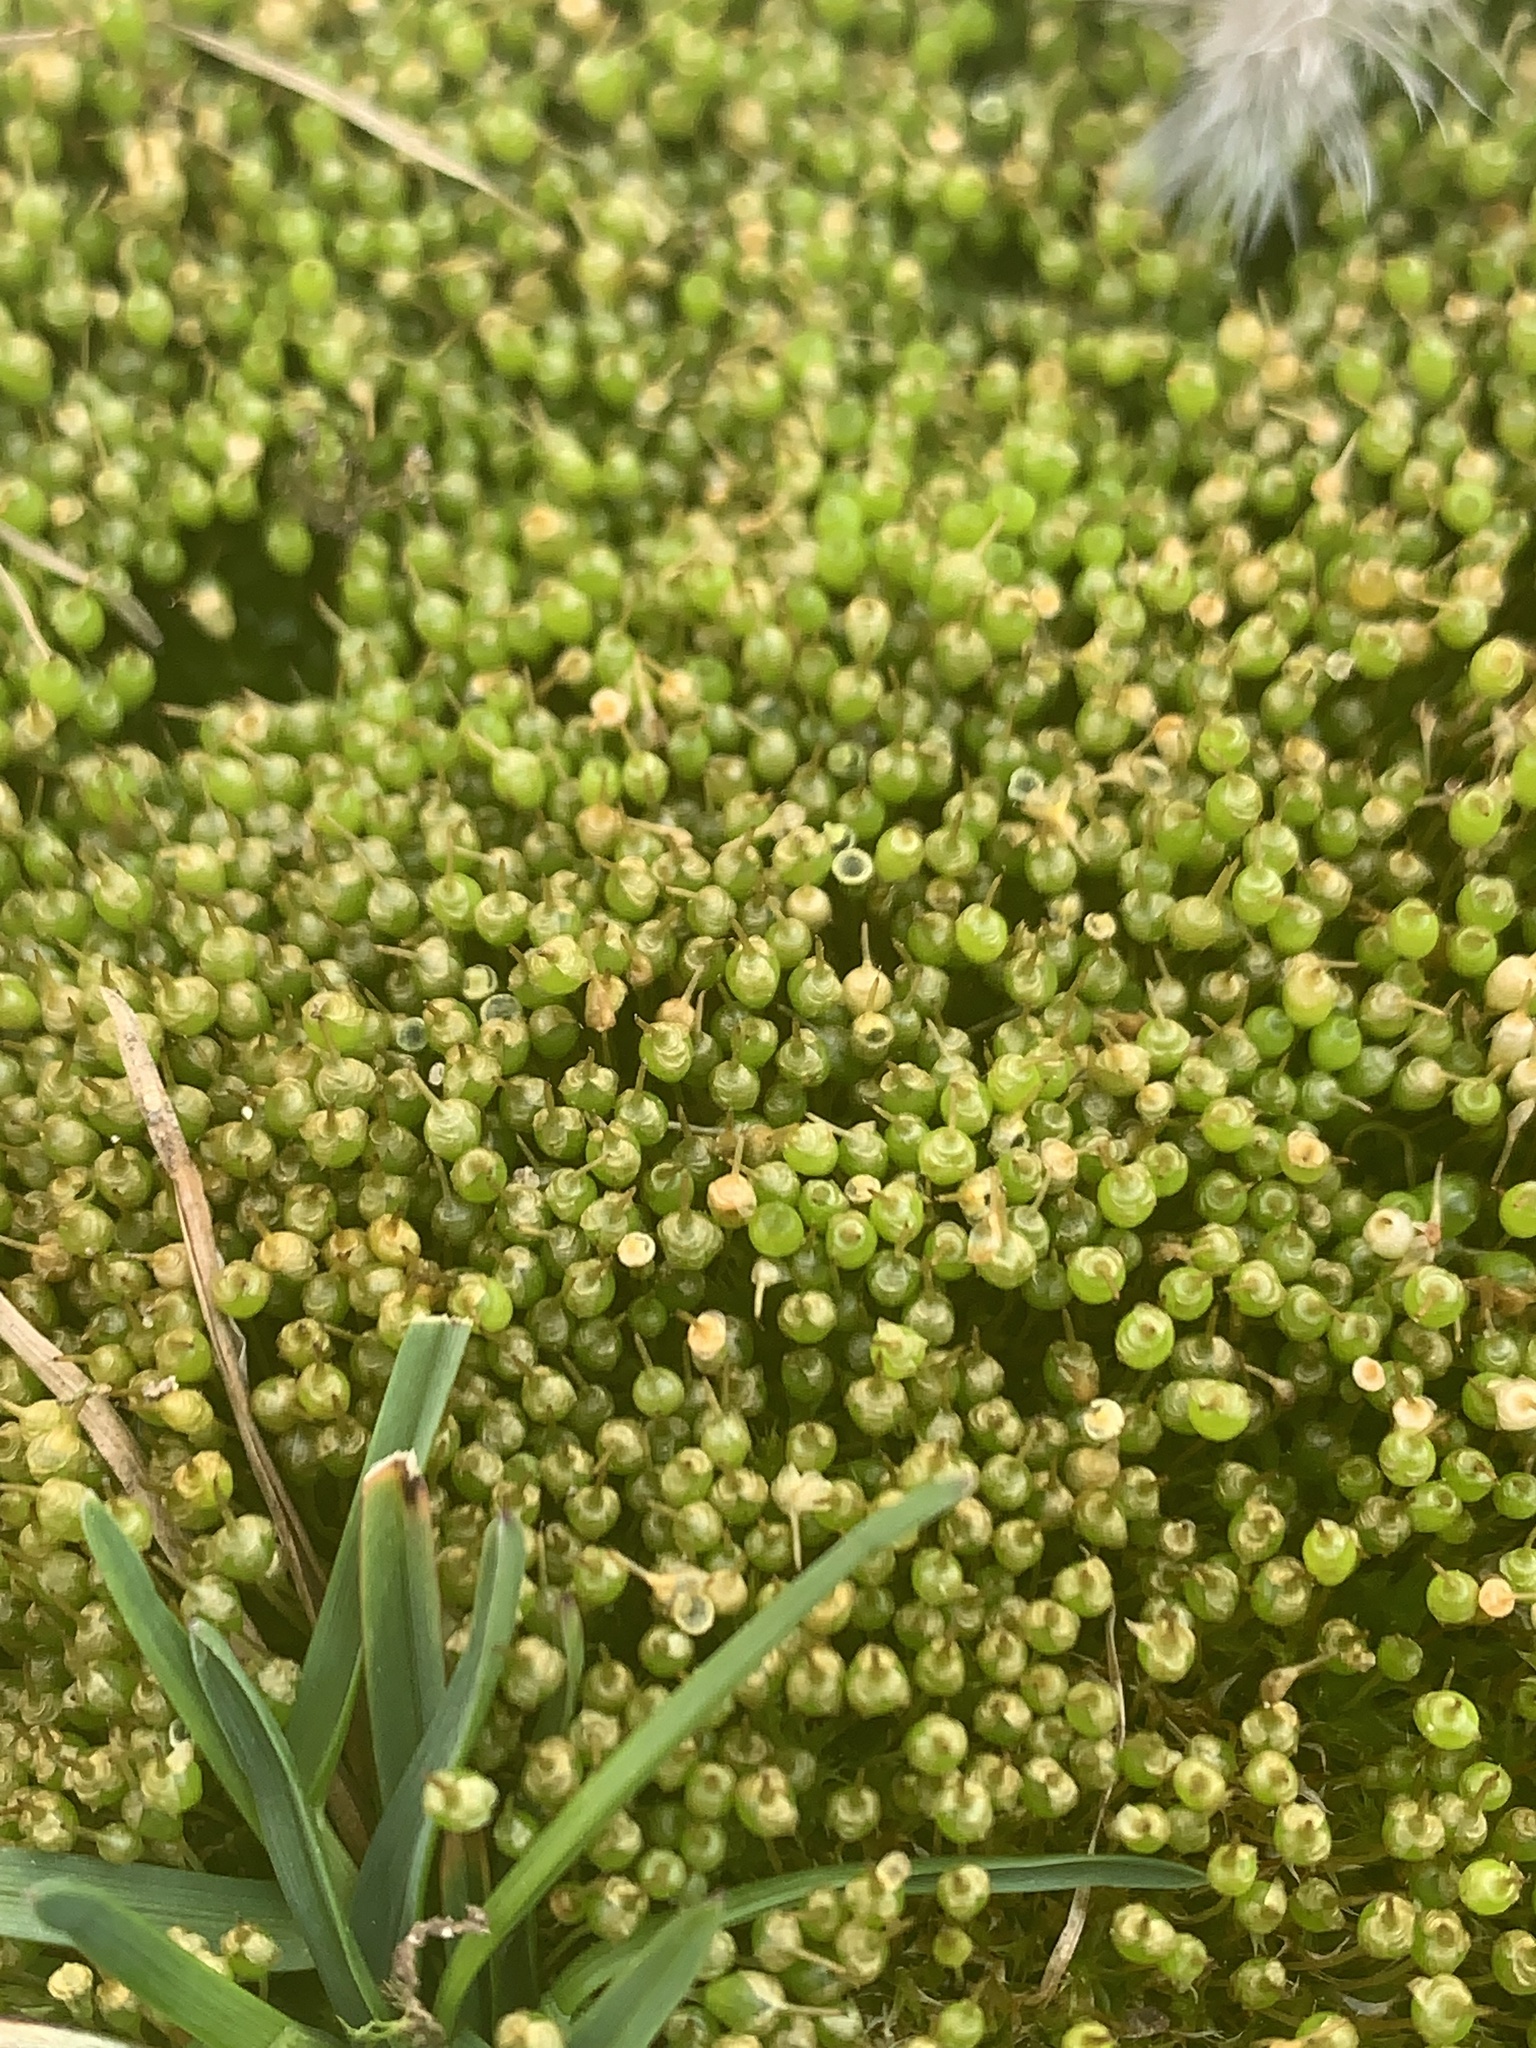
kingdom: Plantae
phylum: Bryophyta
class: Bryopsida
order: Funariales
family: Funariaceae
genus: Physcomitrium
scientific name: Physcomitrium pyriforme
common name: Common bladder-moss
